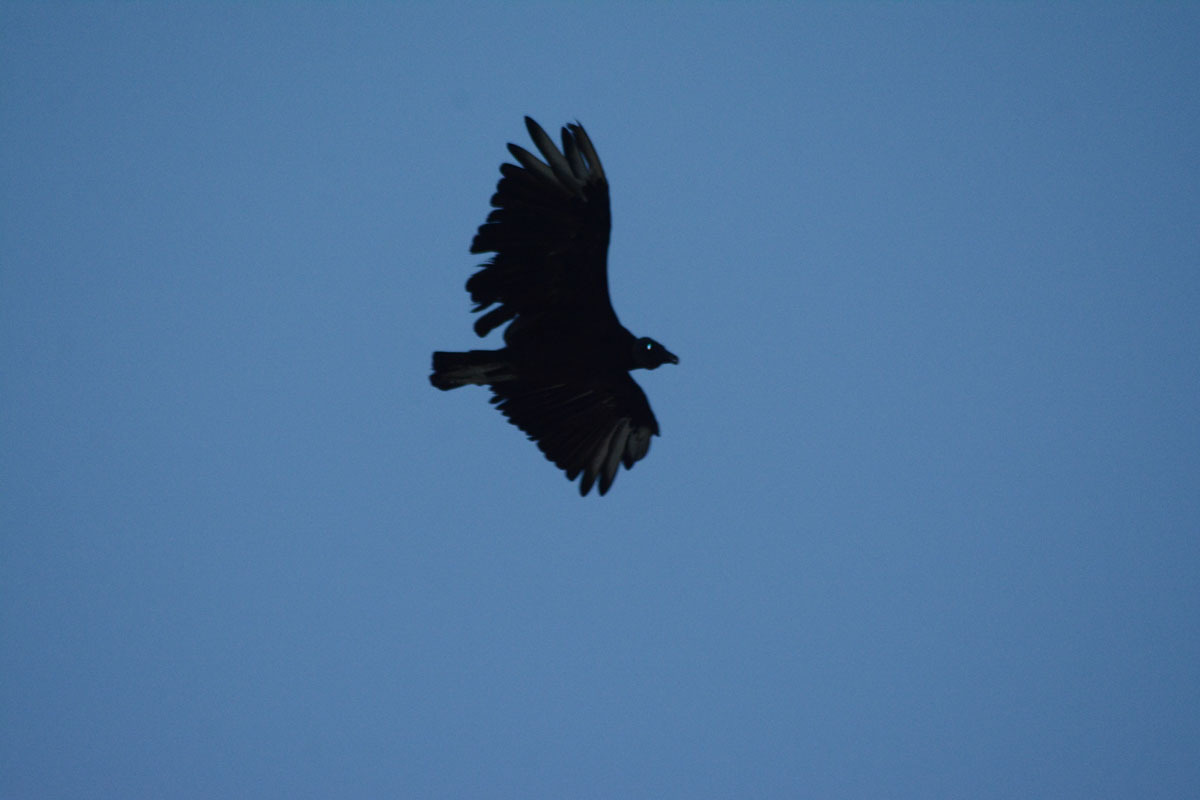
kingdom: Animalia
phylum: Chordata
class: Aves
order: Accipitriformes
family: Cathartidae
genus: Coragyps
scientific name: Coragyps atratus
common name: Black vulture
